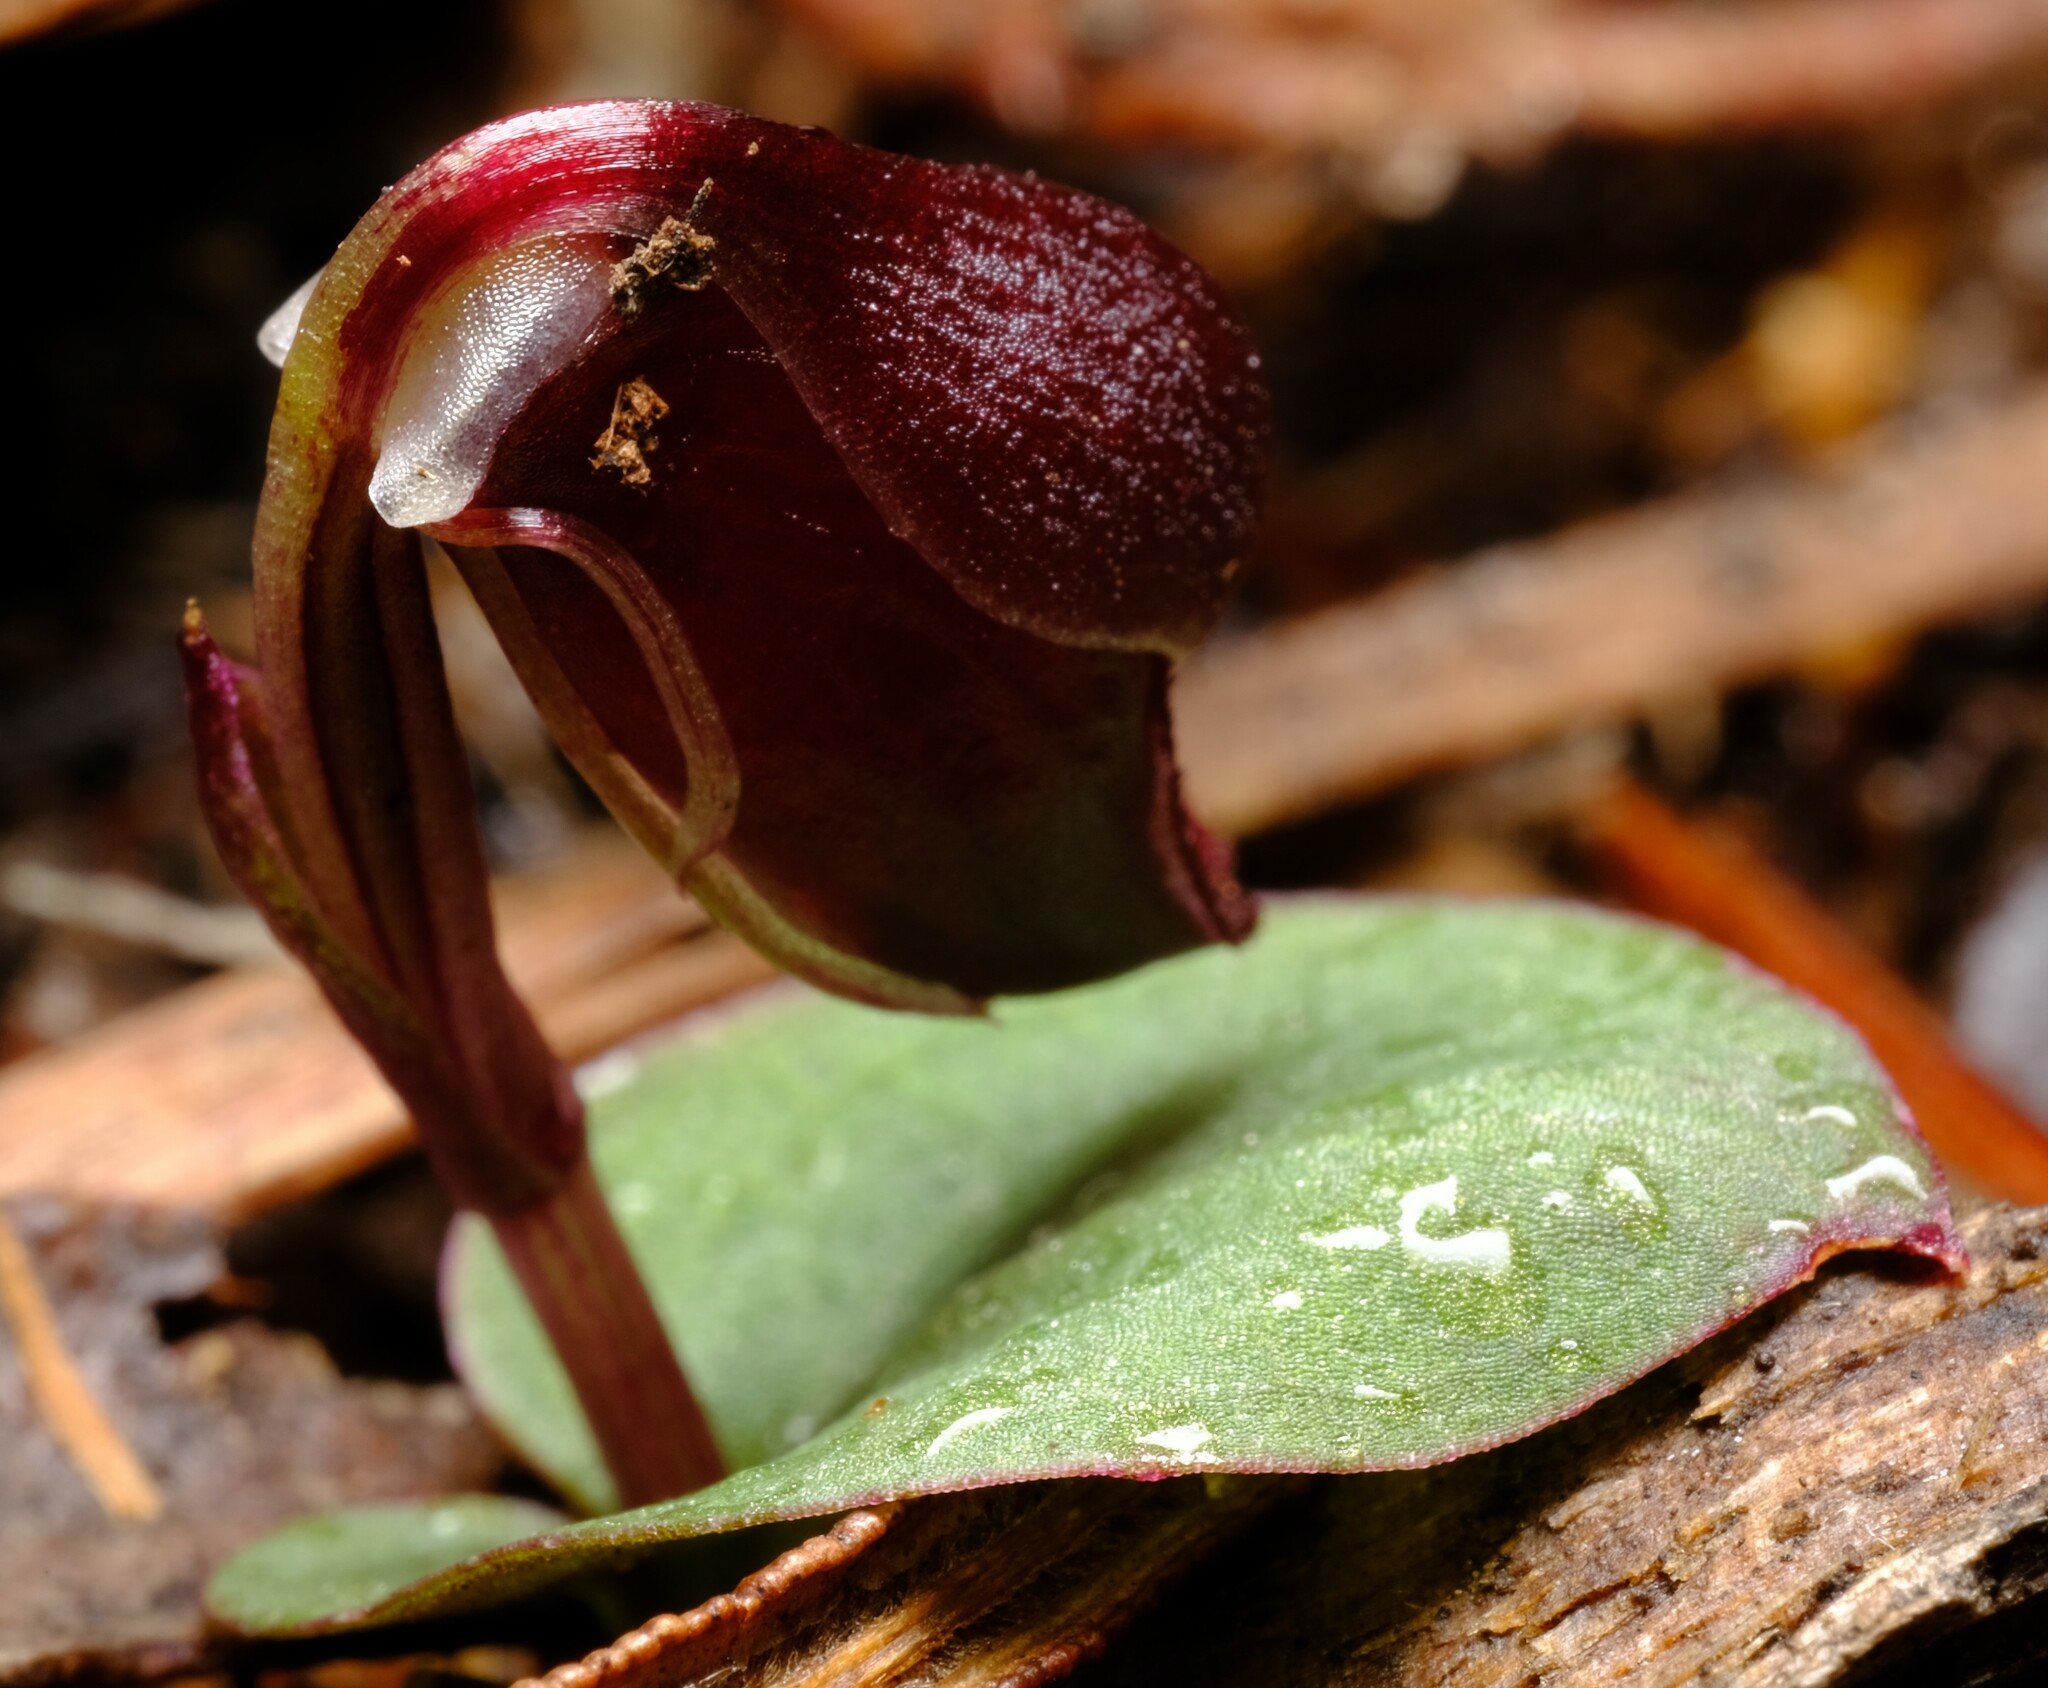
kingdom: Plantae
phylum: Tracheophyta
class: Liliopsida
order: Asparagales
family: Orchidaceae
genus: Corybas
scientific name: Corybas unguiculatus
